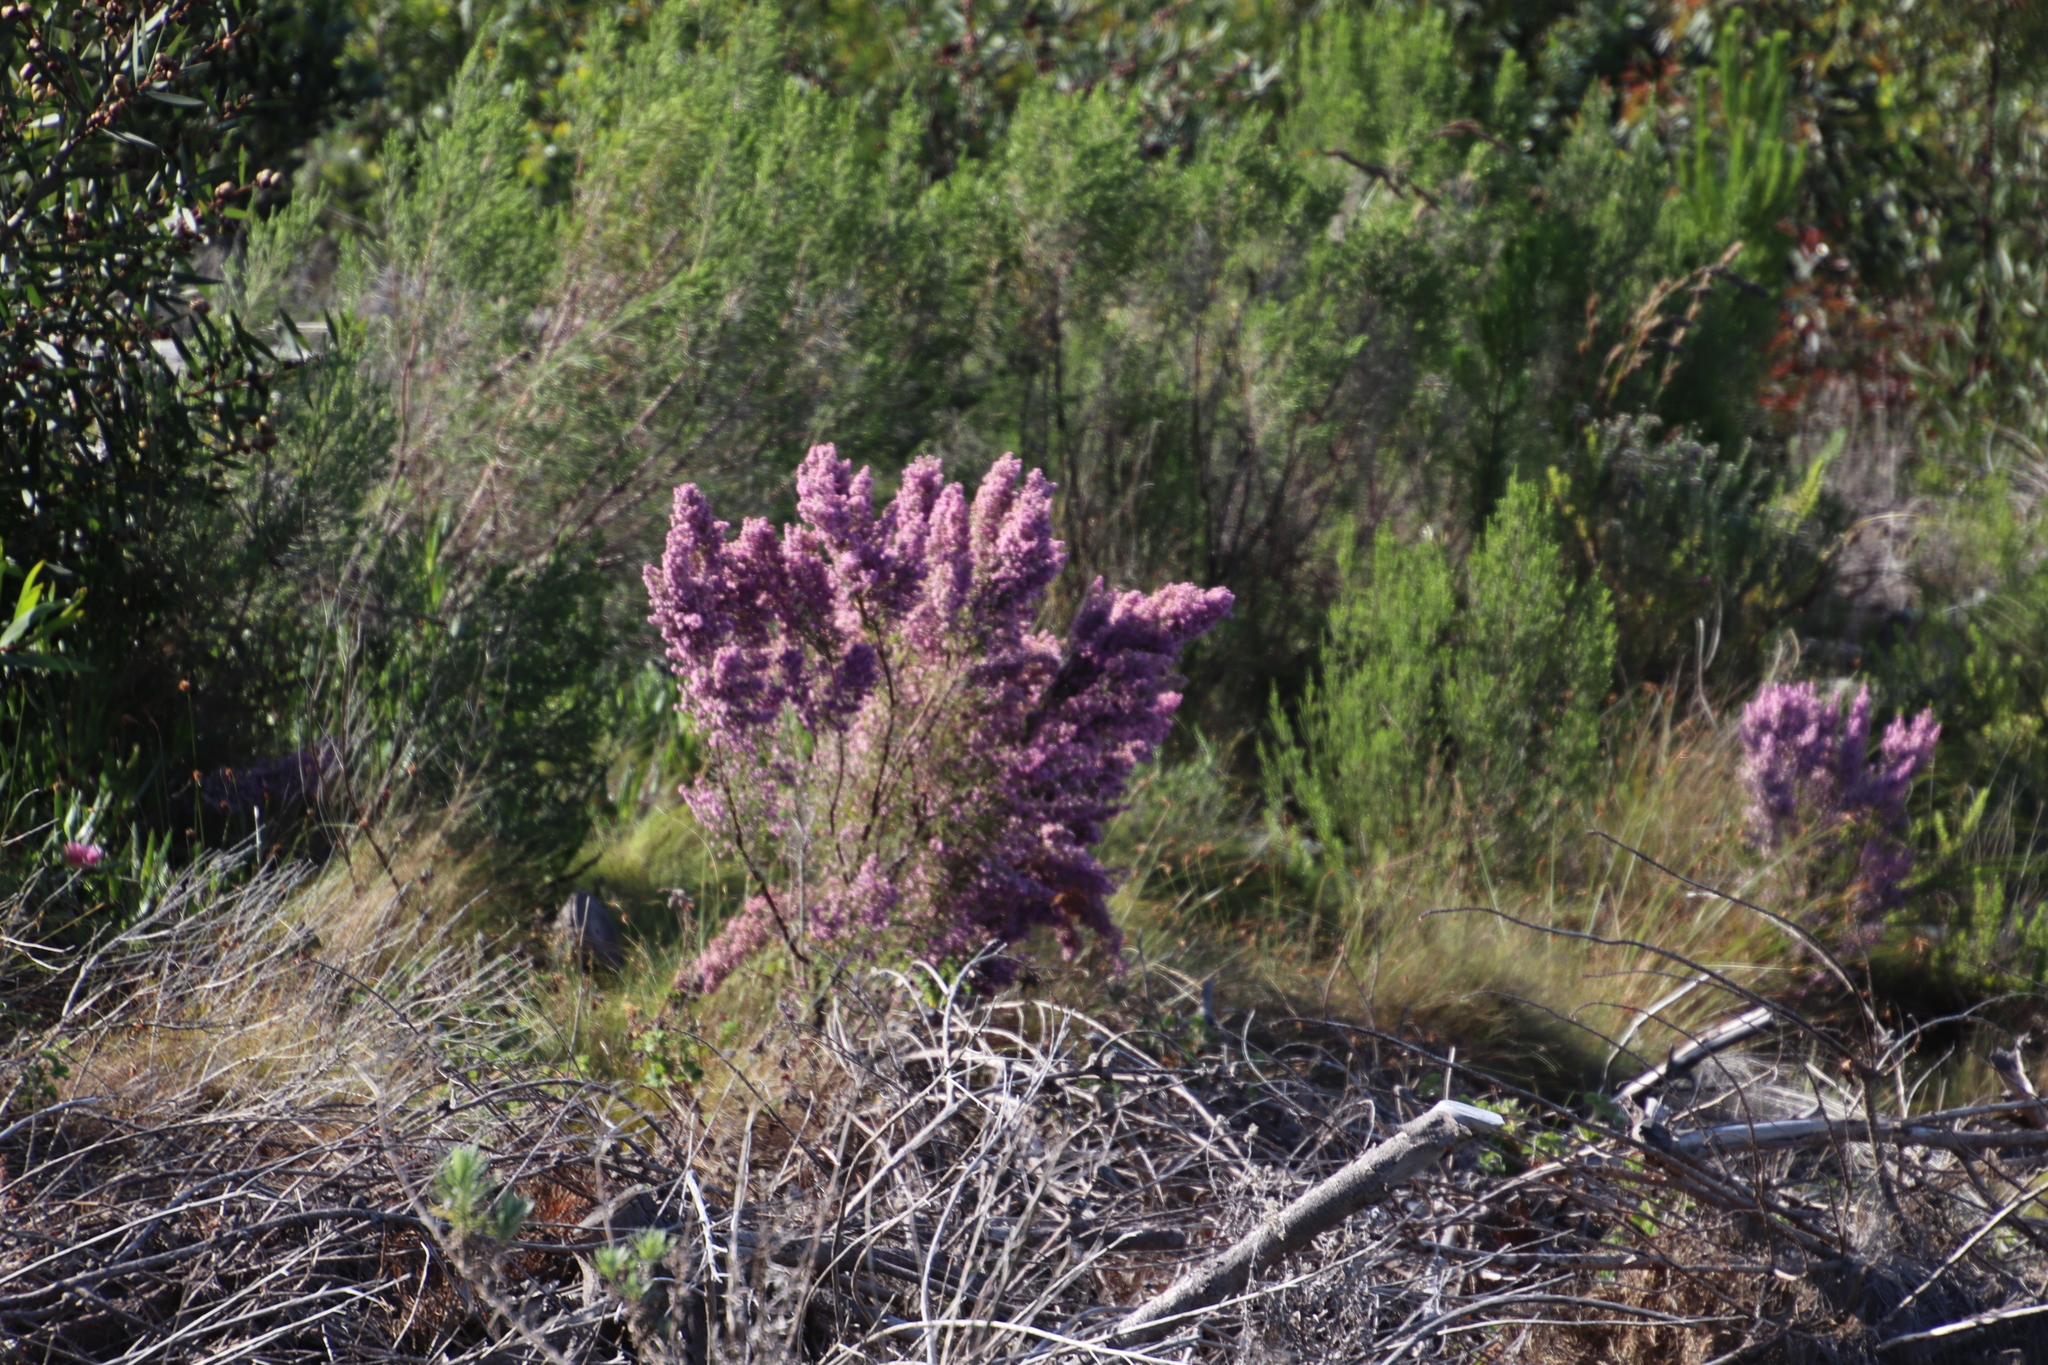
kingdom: Plantae
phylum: Tracheophyta
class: Magnoliopsida
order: Ericales
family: Ericaceae
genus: Erica
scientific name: Erica mauritanica
